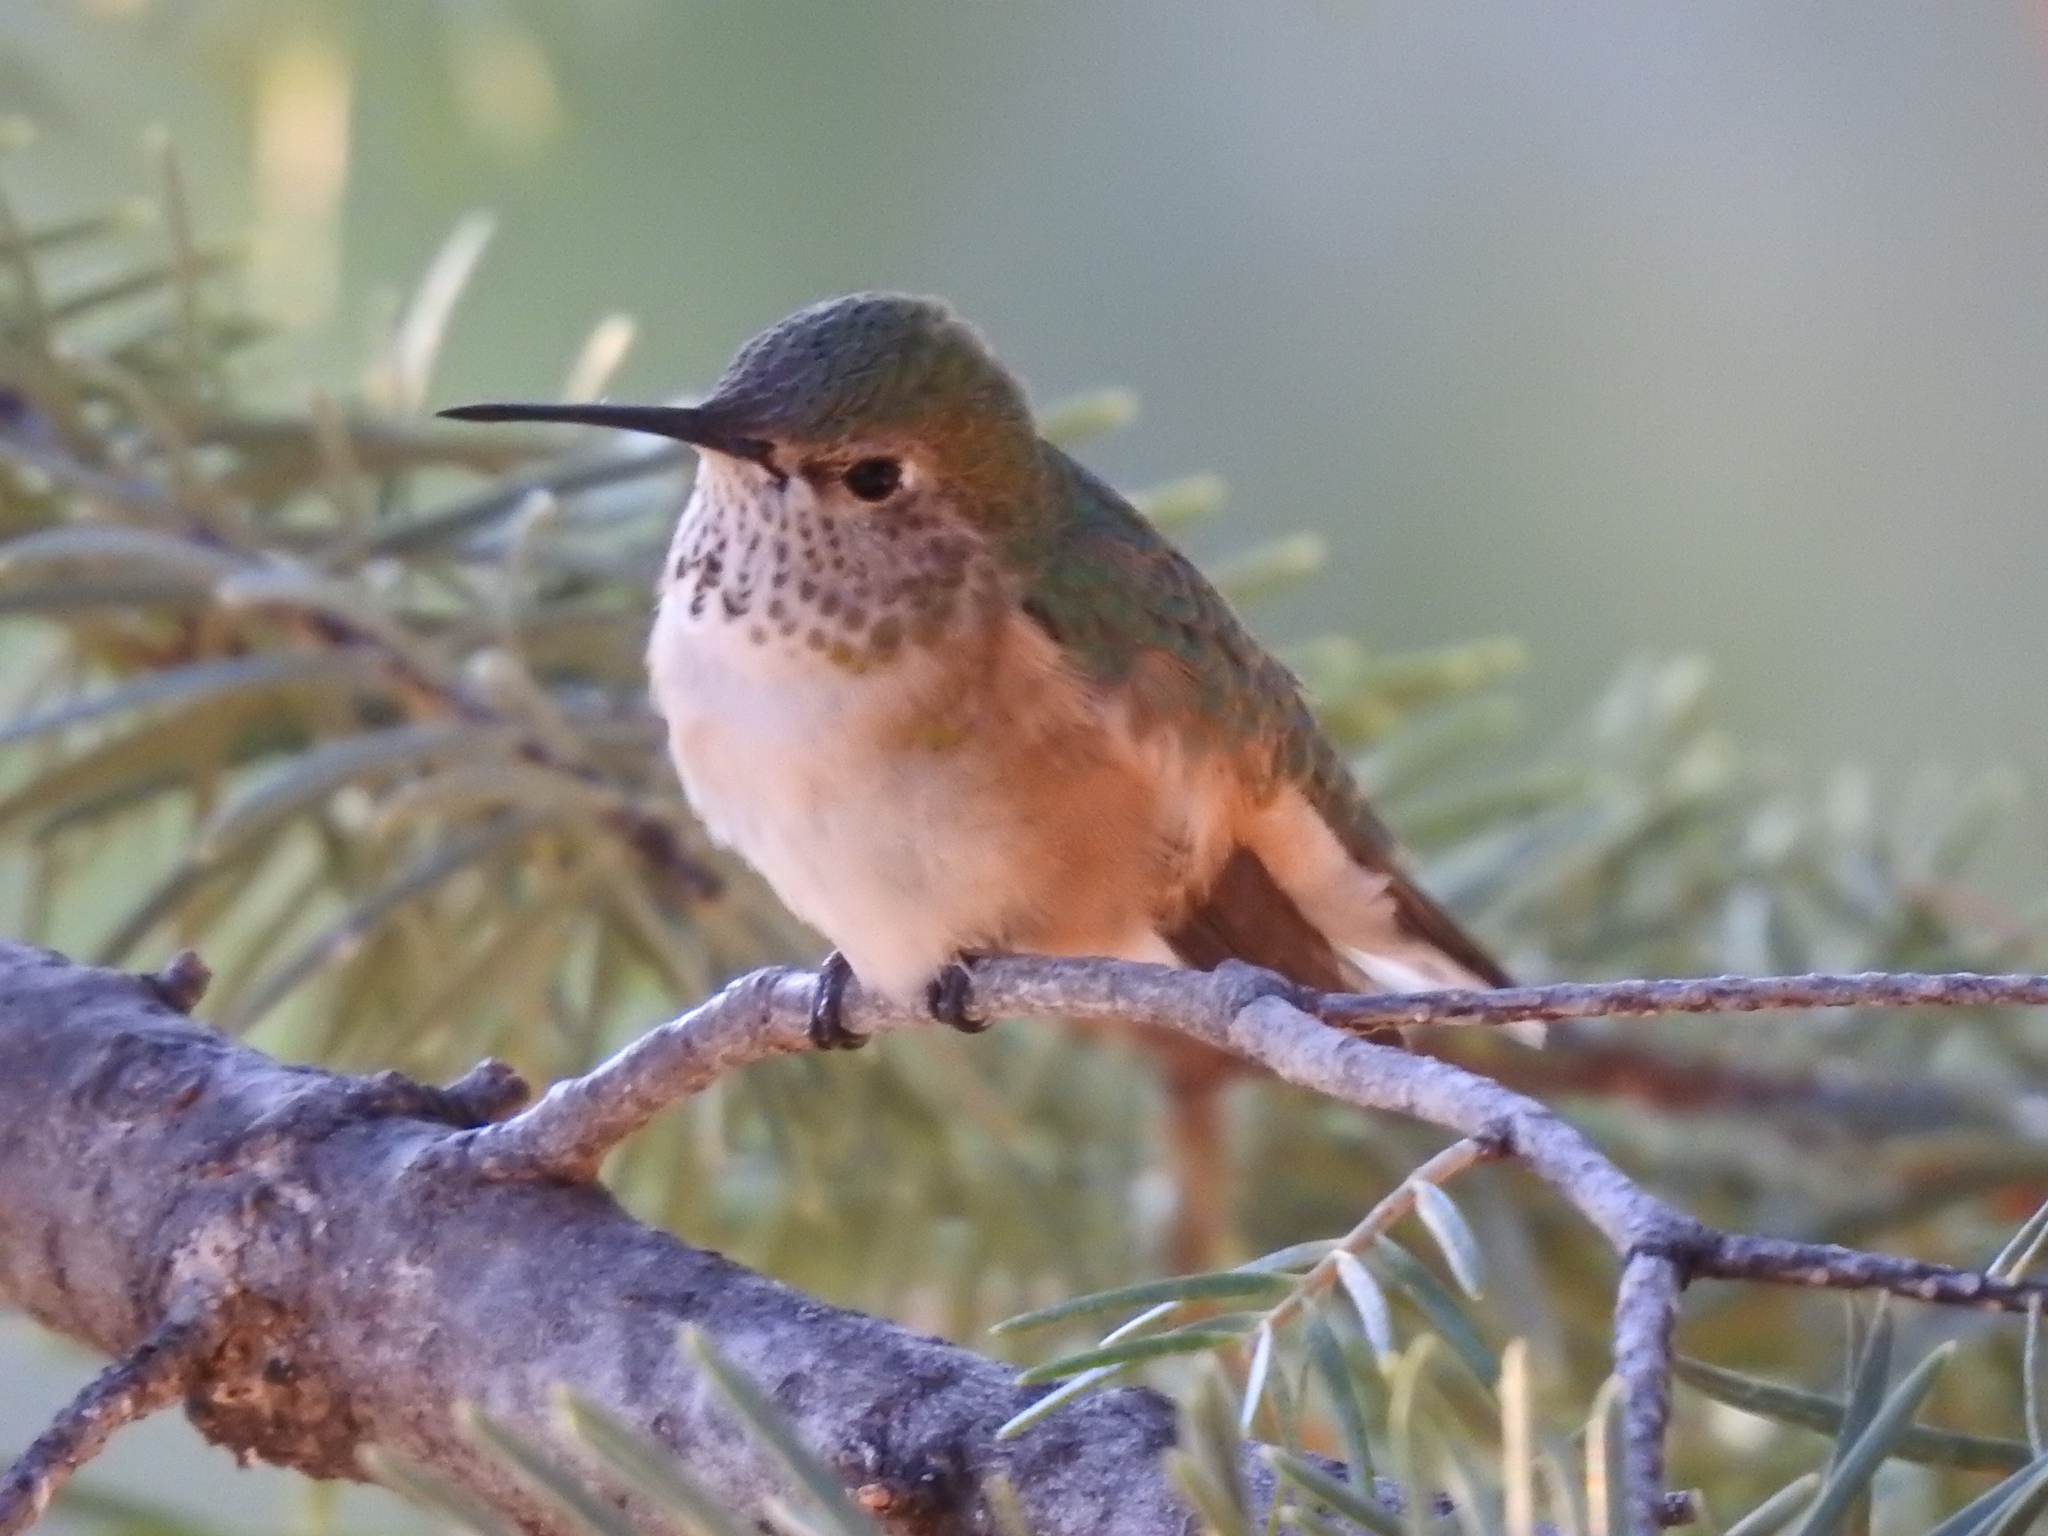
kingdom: Animalia
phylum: Chordata
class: Aves
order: Apodiformes
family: Trochilidae
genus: Selasphorus
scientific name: Selasphorus rufus
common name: Rufous hummingbird
